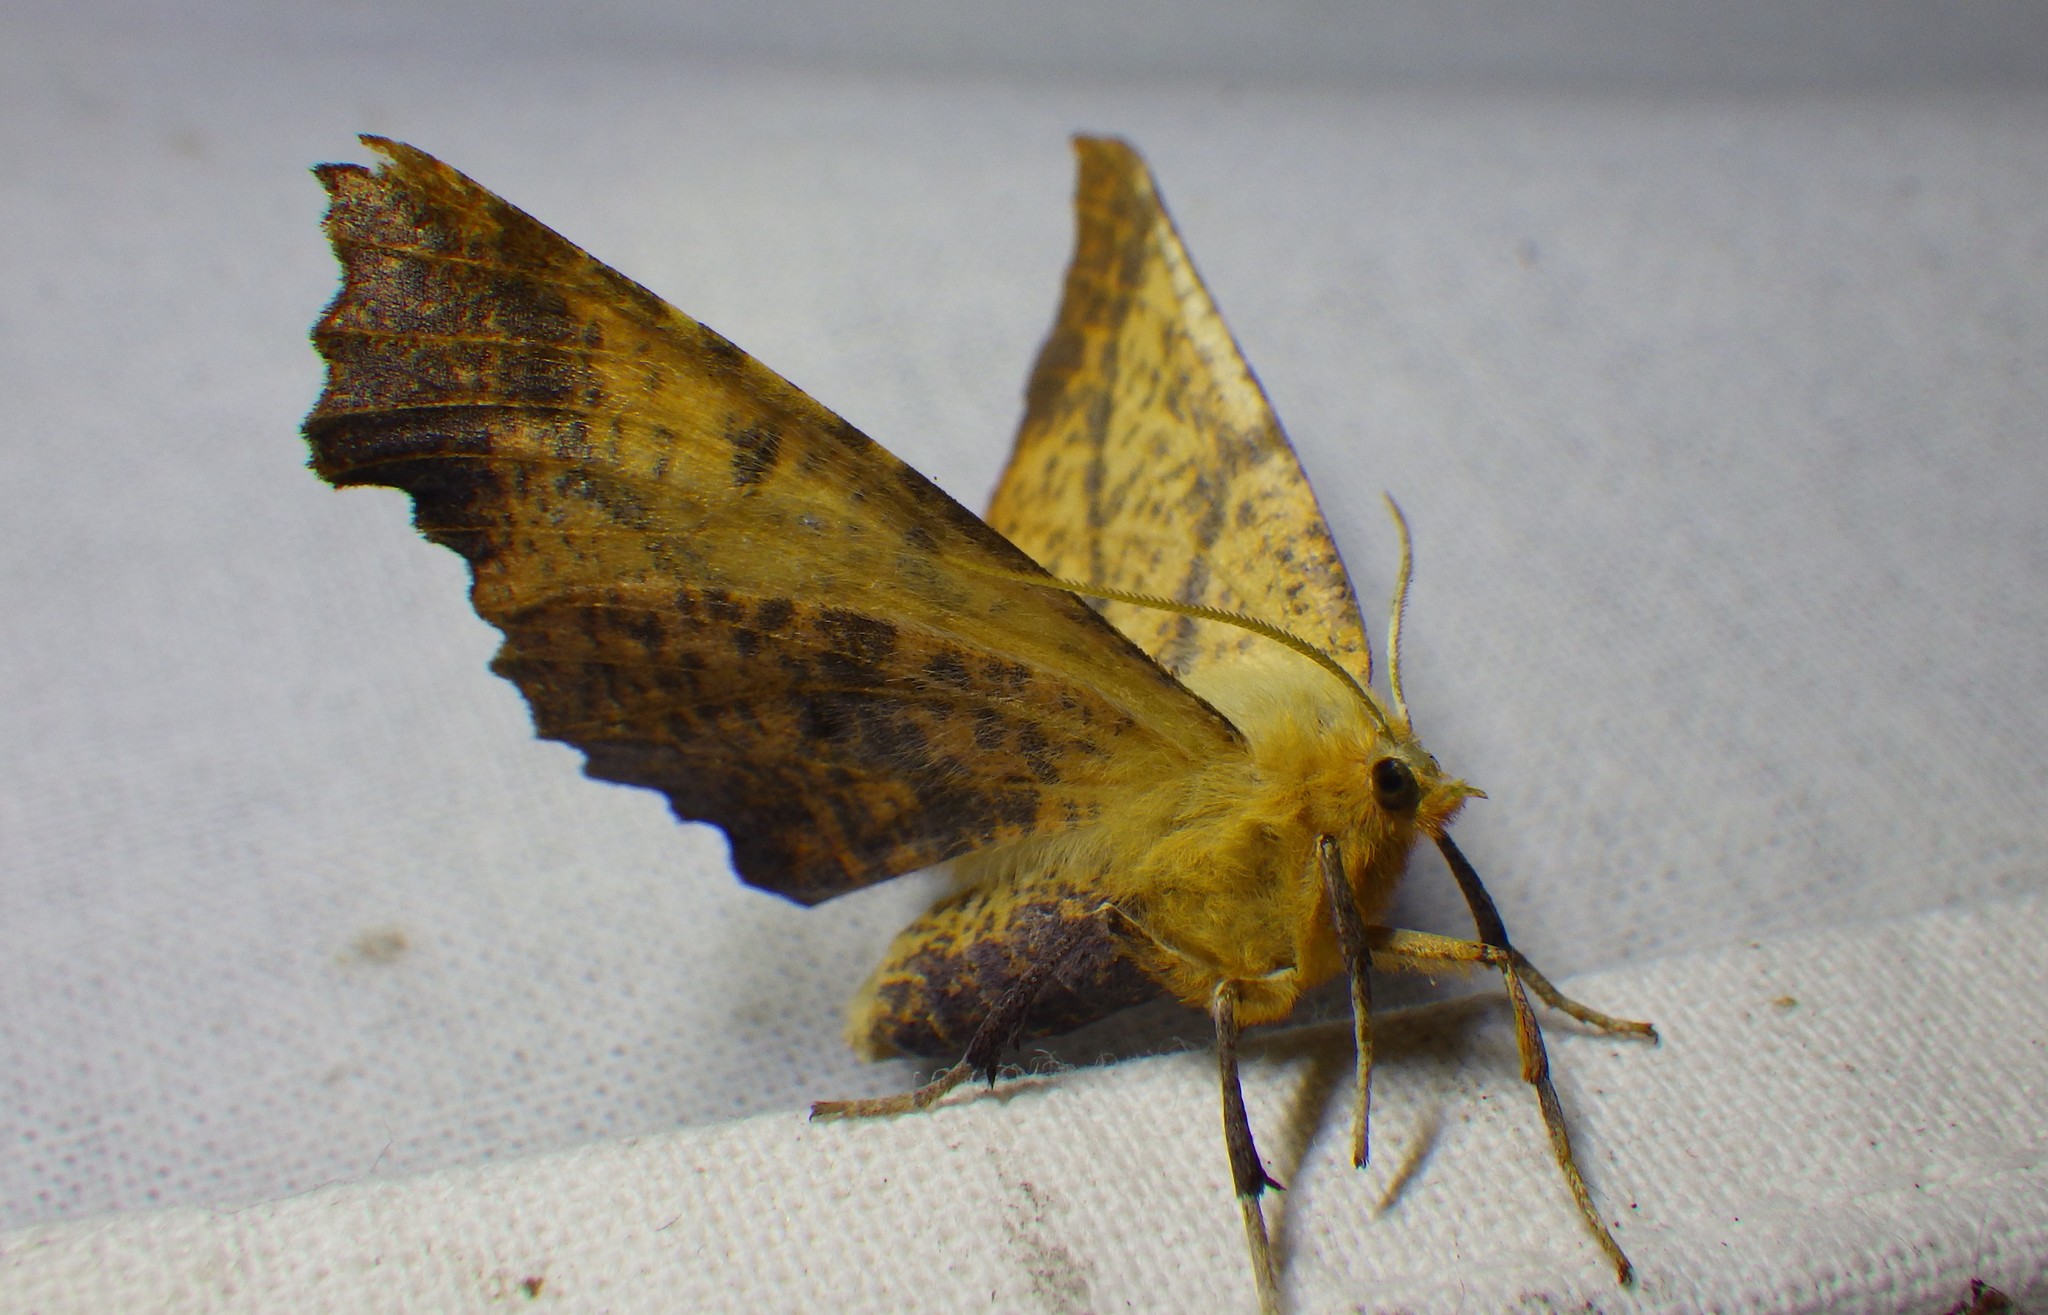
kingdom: Animalia
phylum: Arthropoda
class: Insecta
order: Lepidoptera
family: Geometridae
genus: Ennomos
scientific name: Ennomos autumnaria
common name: Large thorn
